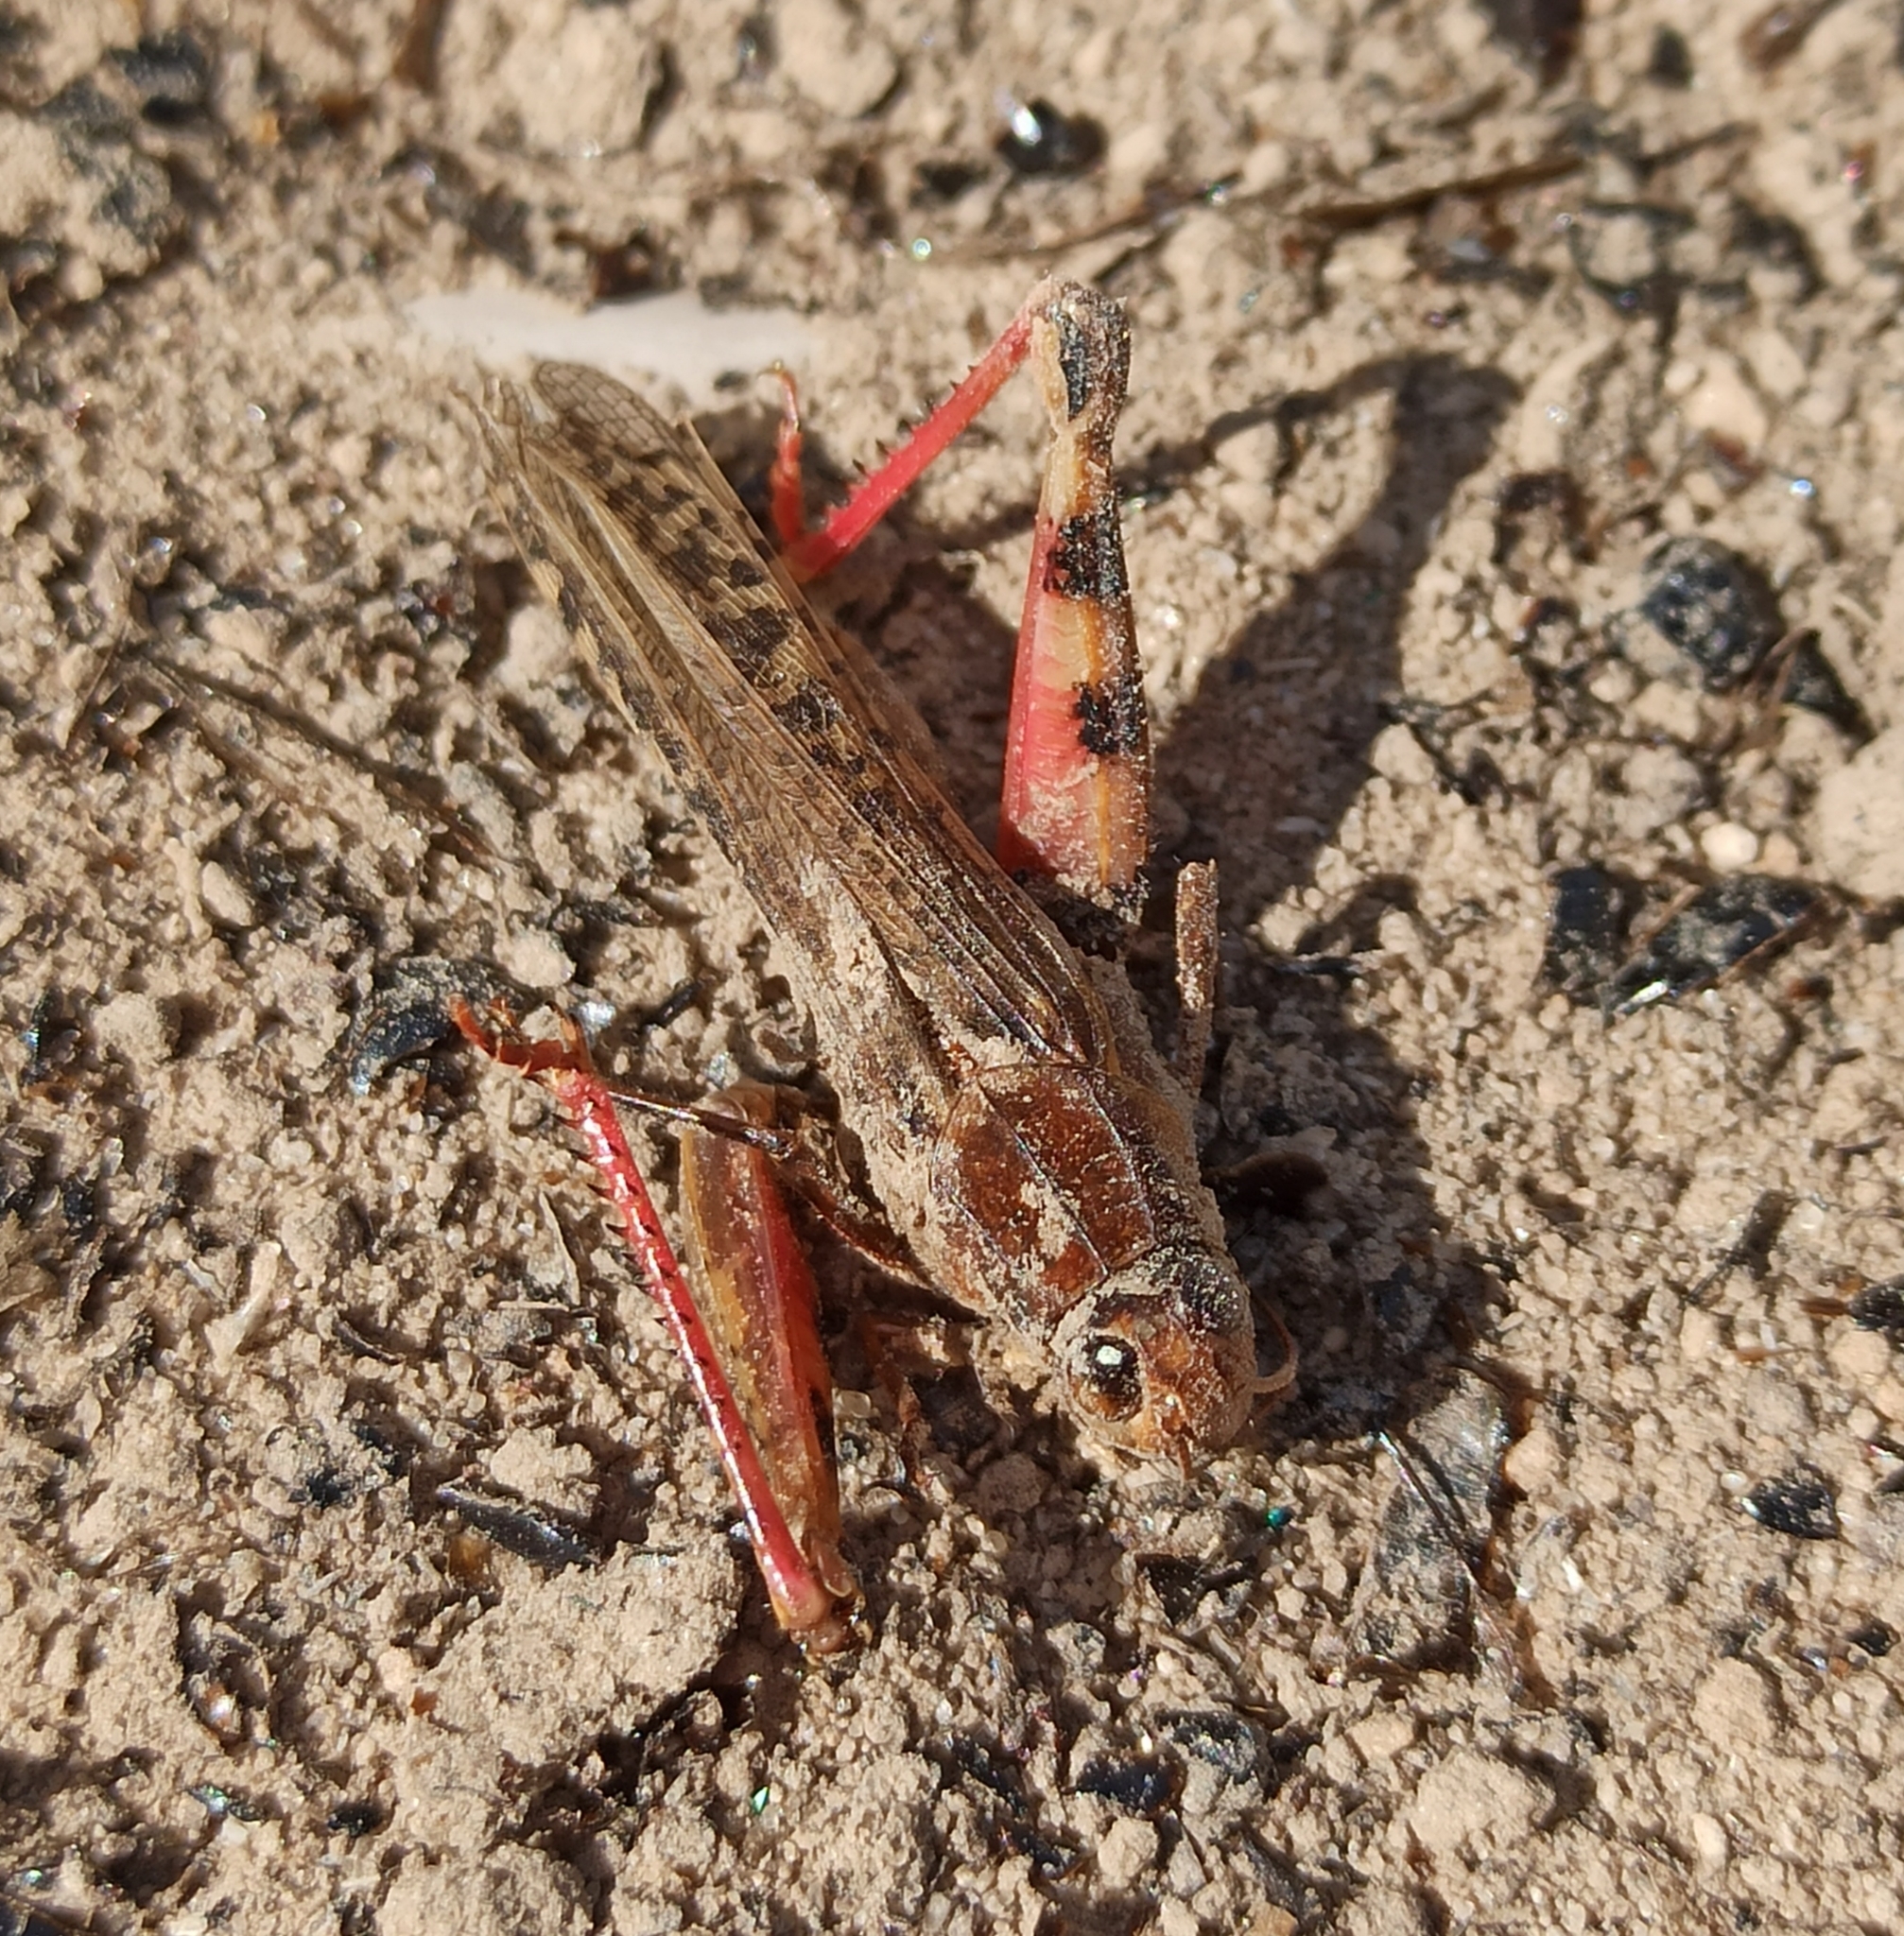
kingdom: Animalia
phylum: Arthropoda
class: Insecta
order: Orthoptera
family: Acrididae
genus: Calliptamus
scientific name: Calliptamus italicus
